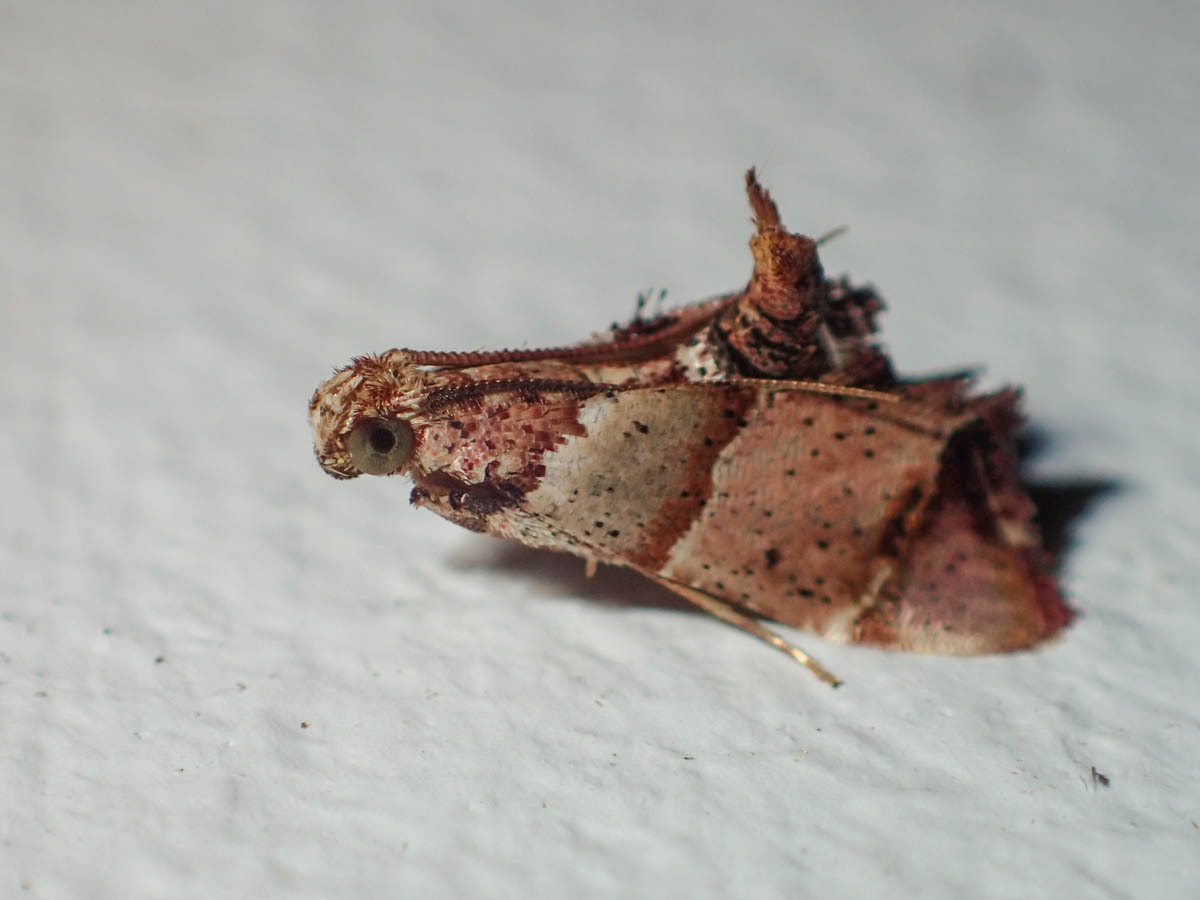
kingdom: Animalia
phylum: Arthropoda
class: Insecta
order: Lepidoptera
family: Pyralidae
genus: Pyralis
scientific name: Pyralis ravolalis
